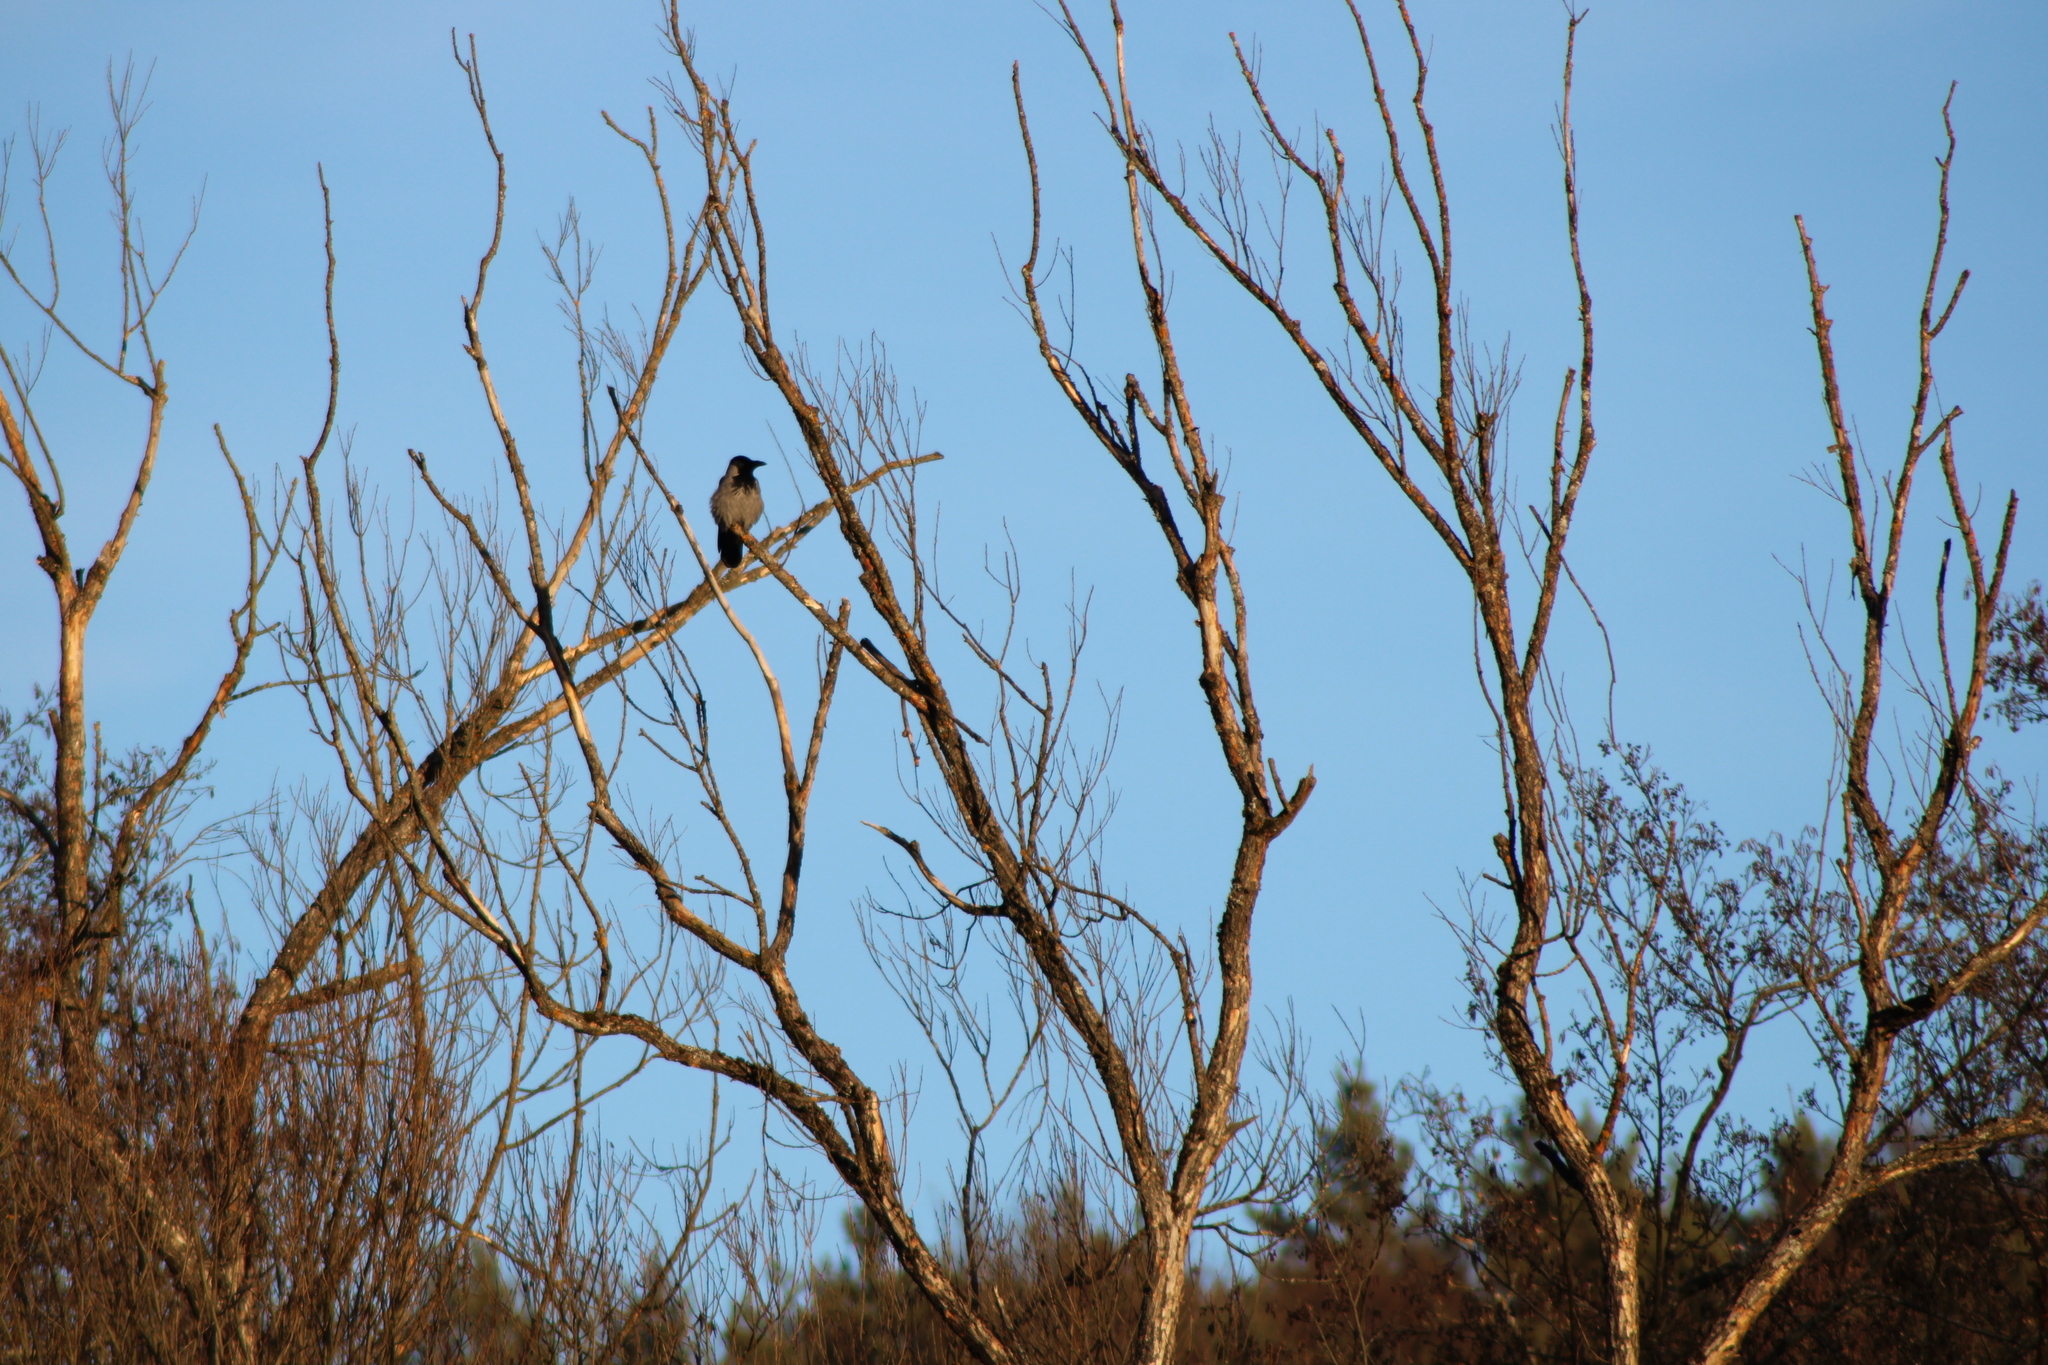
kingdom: Animalia
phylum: Chordata
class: Aves
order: Passeriformes
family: Corvidae
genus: Corvus
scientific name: Corvus cornix
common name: Hooded crow
